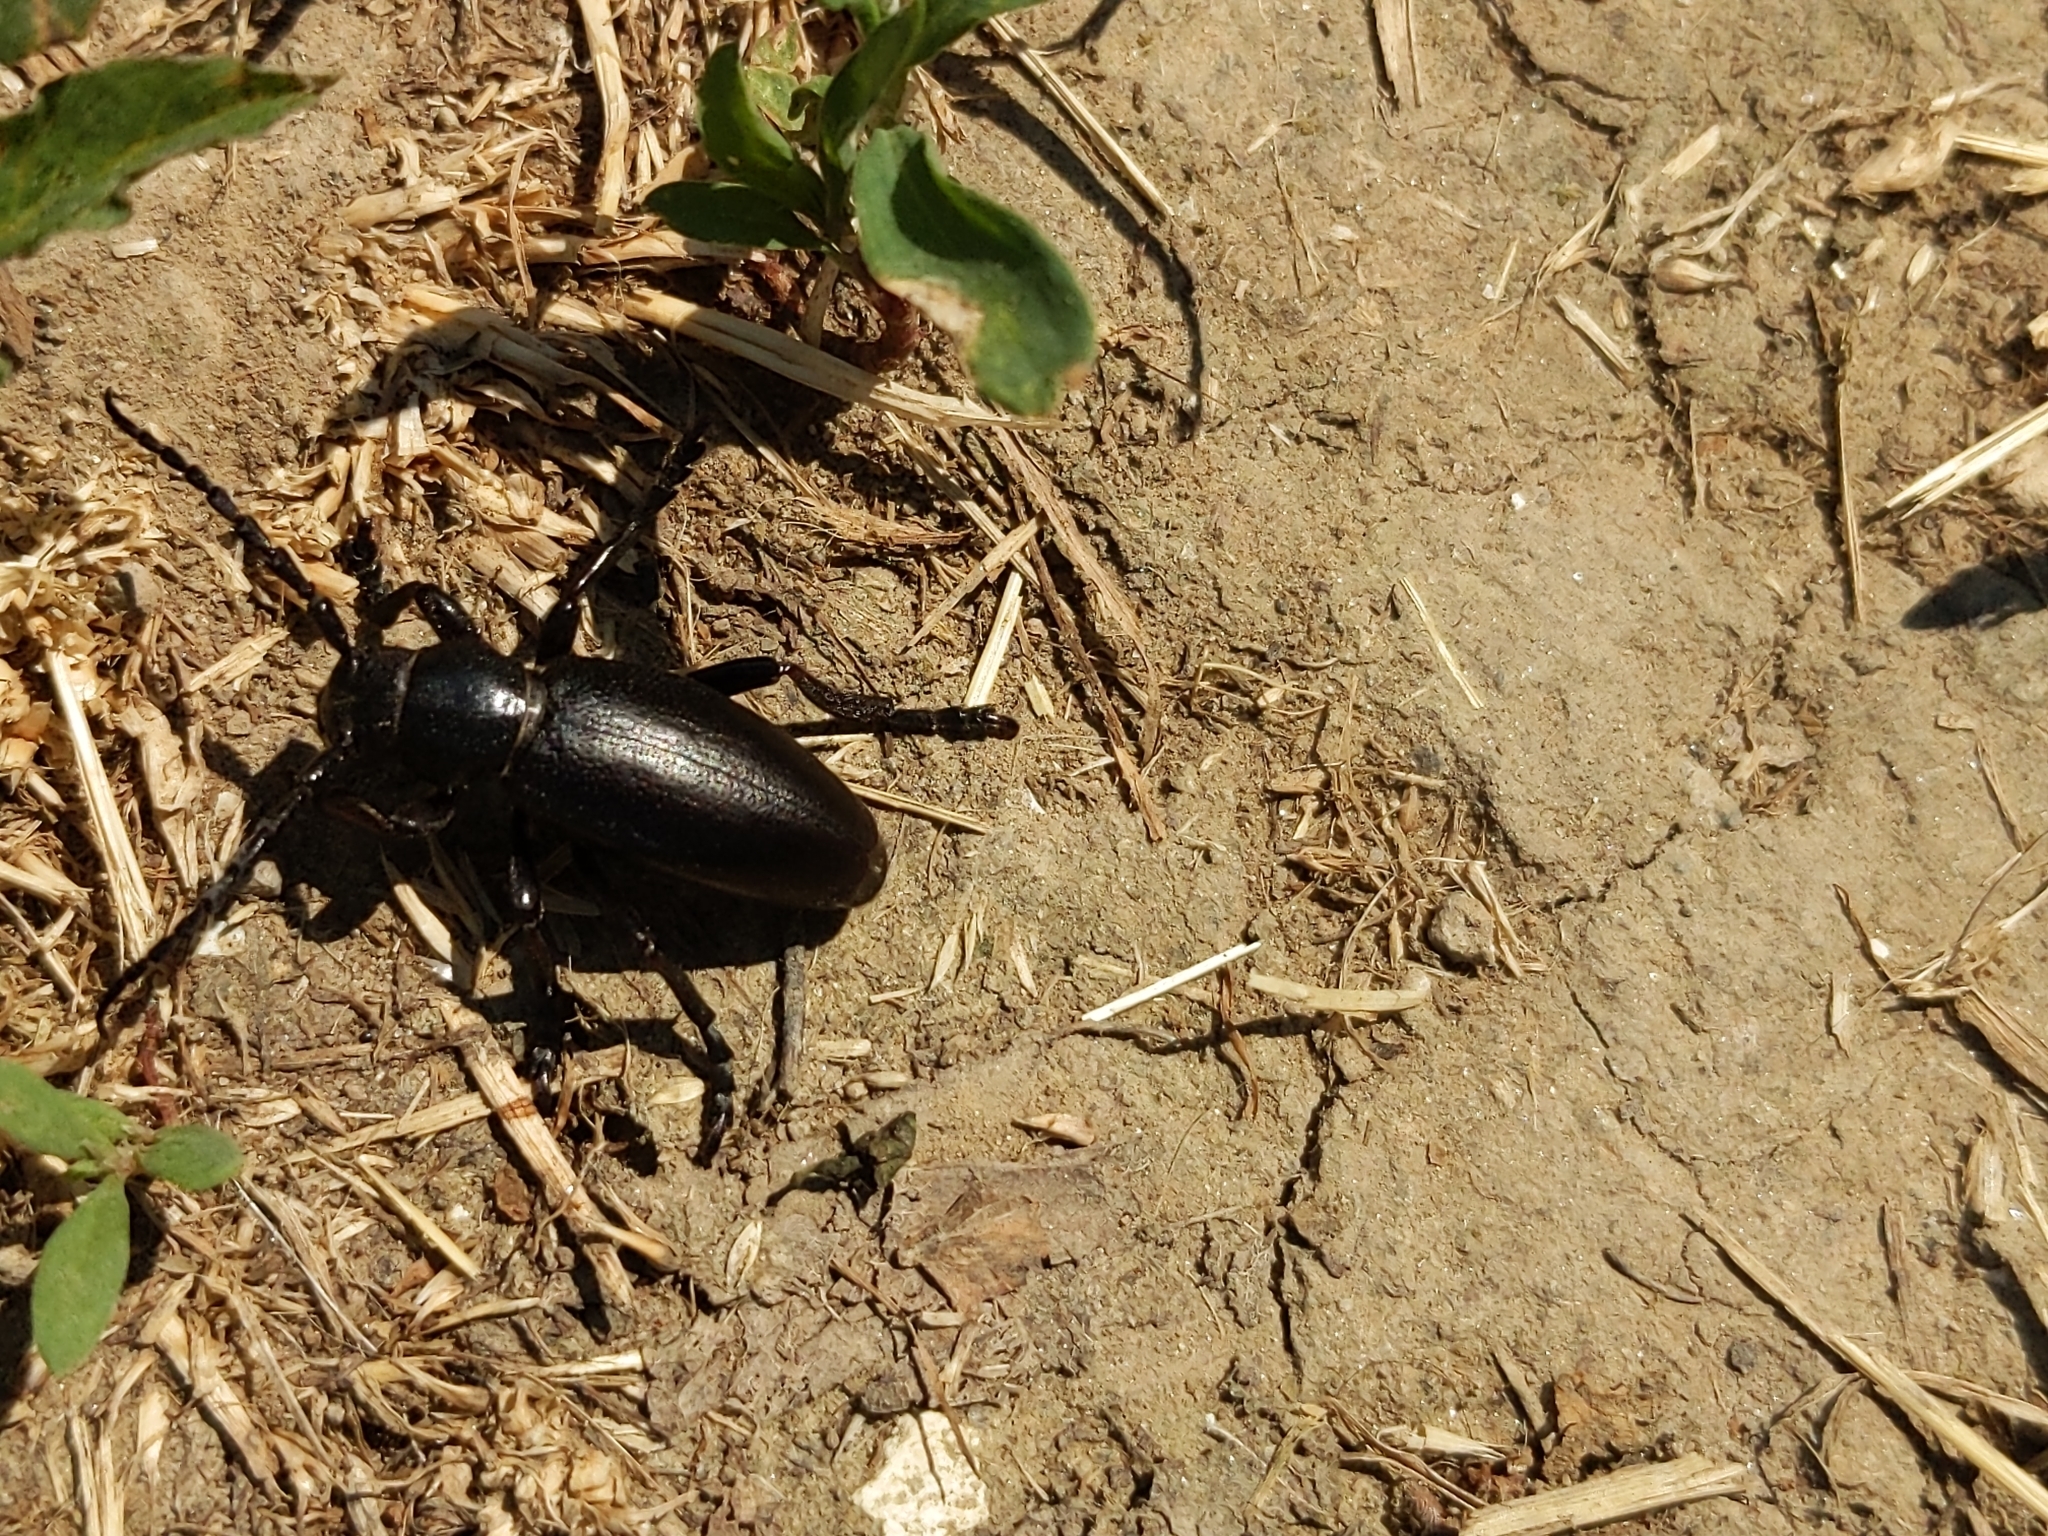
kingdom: Animalia
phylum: Arthropoda
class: Insecta
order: Coleoptera
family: Cerambycidae
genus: Dorcadion
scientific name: Dorcadion aethiops
